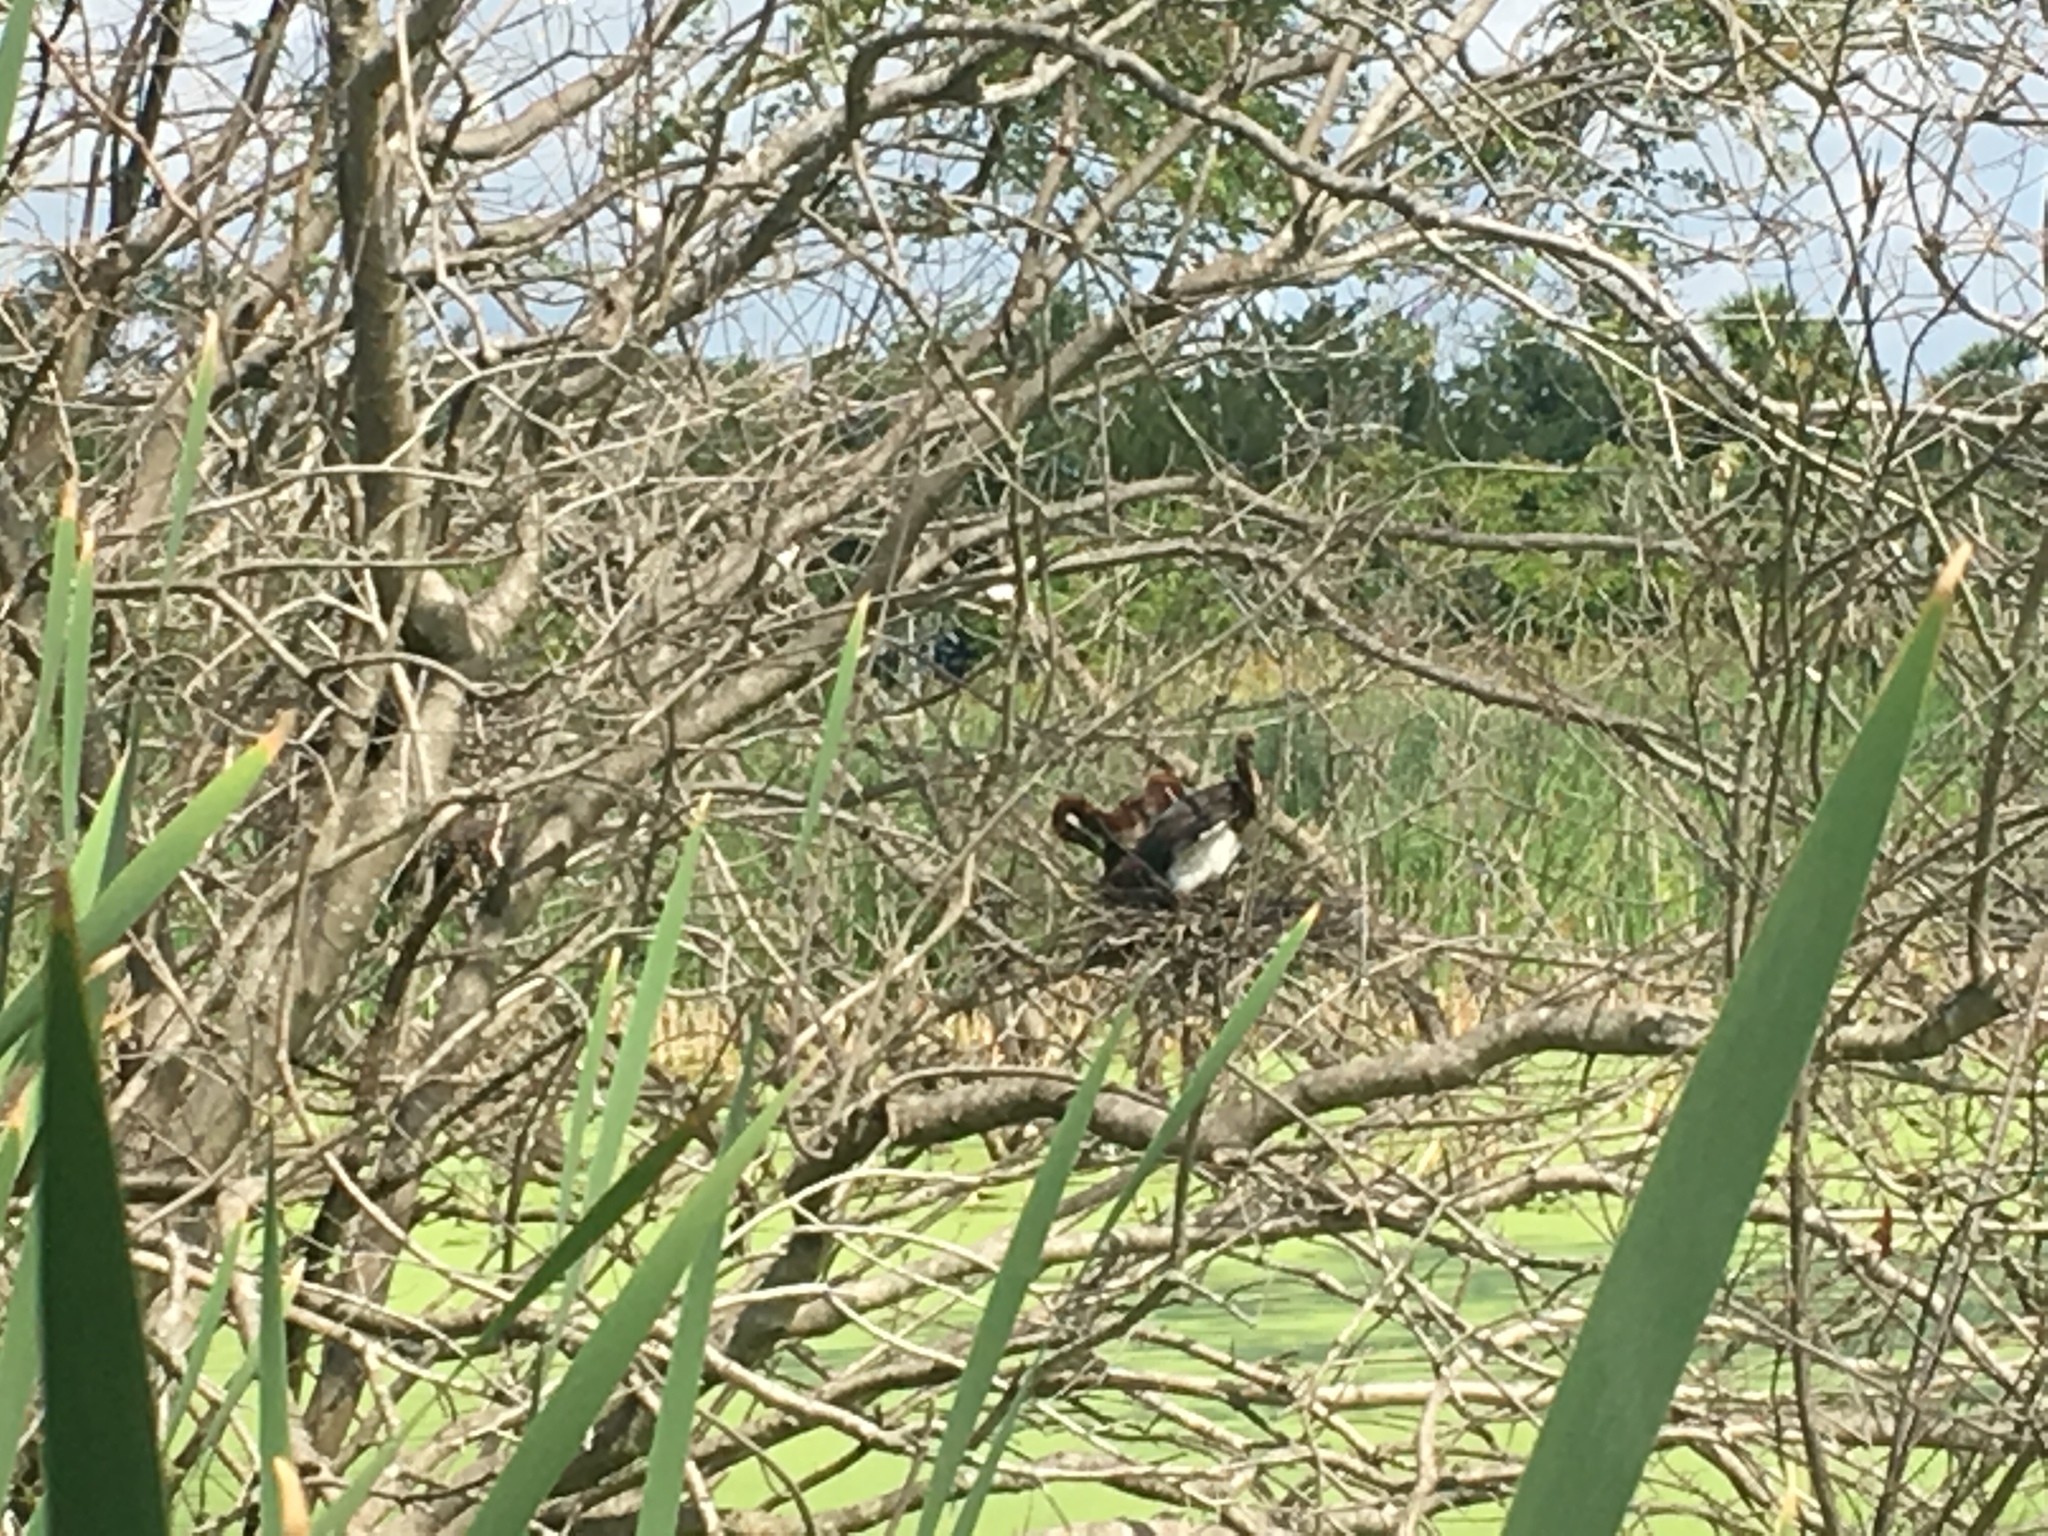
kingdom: Animalia
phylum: Chordata
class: Aves
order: Pelecaniformes
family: Ardeidae
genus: Egretta
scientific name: Egretta tricolor
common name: Tricolored heron
